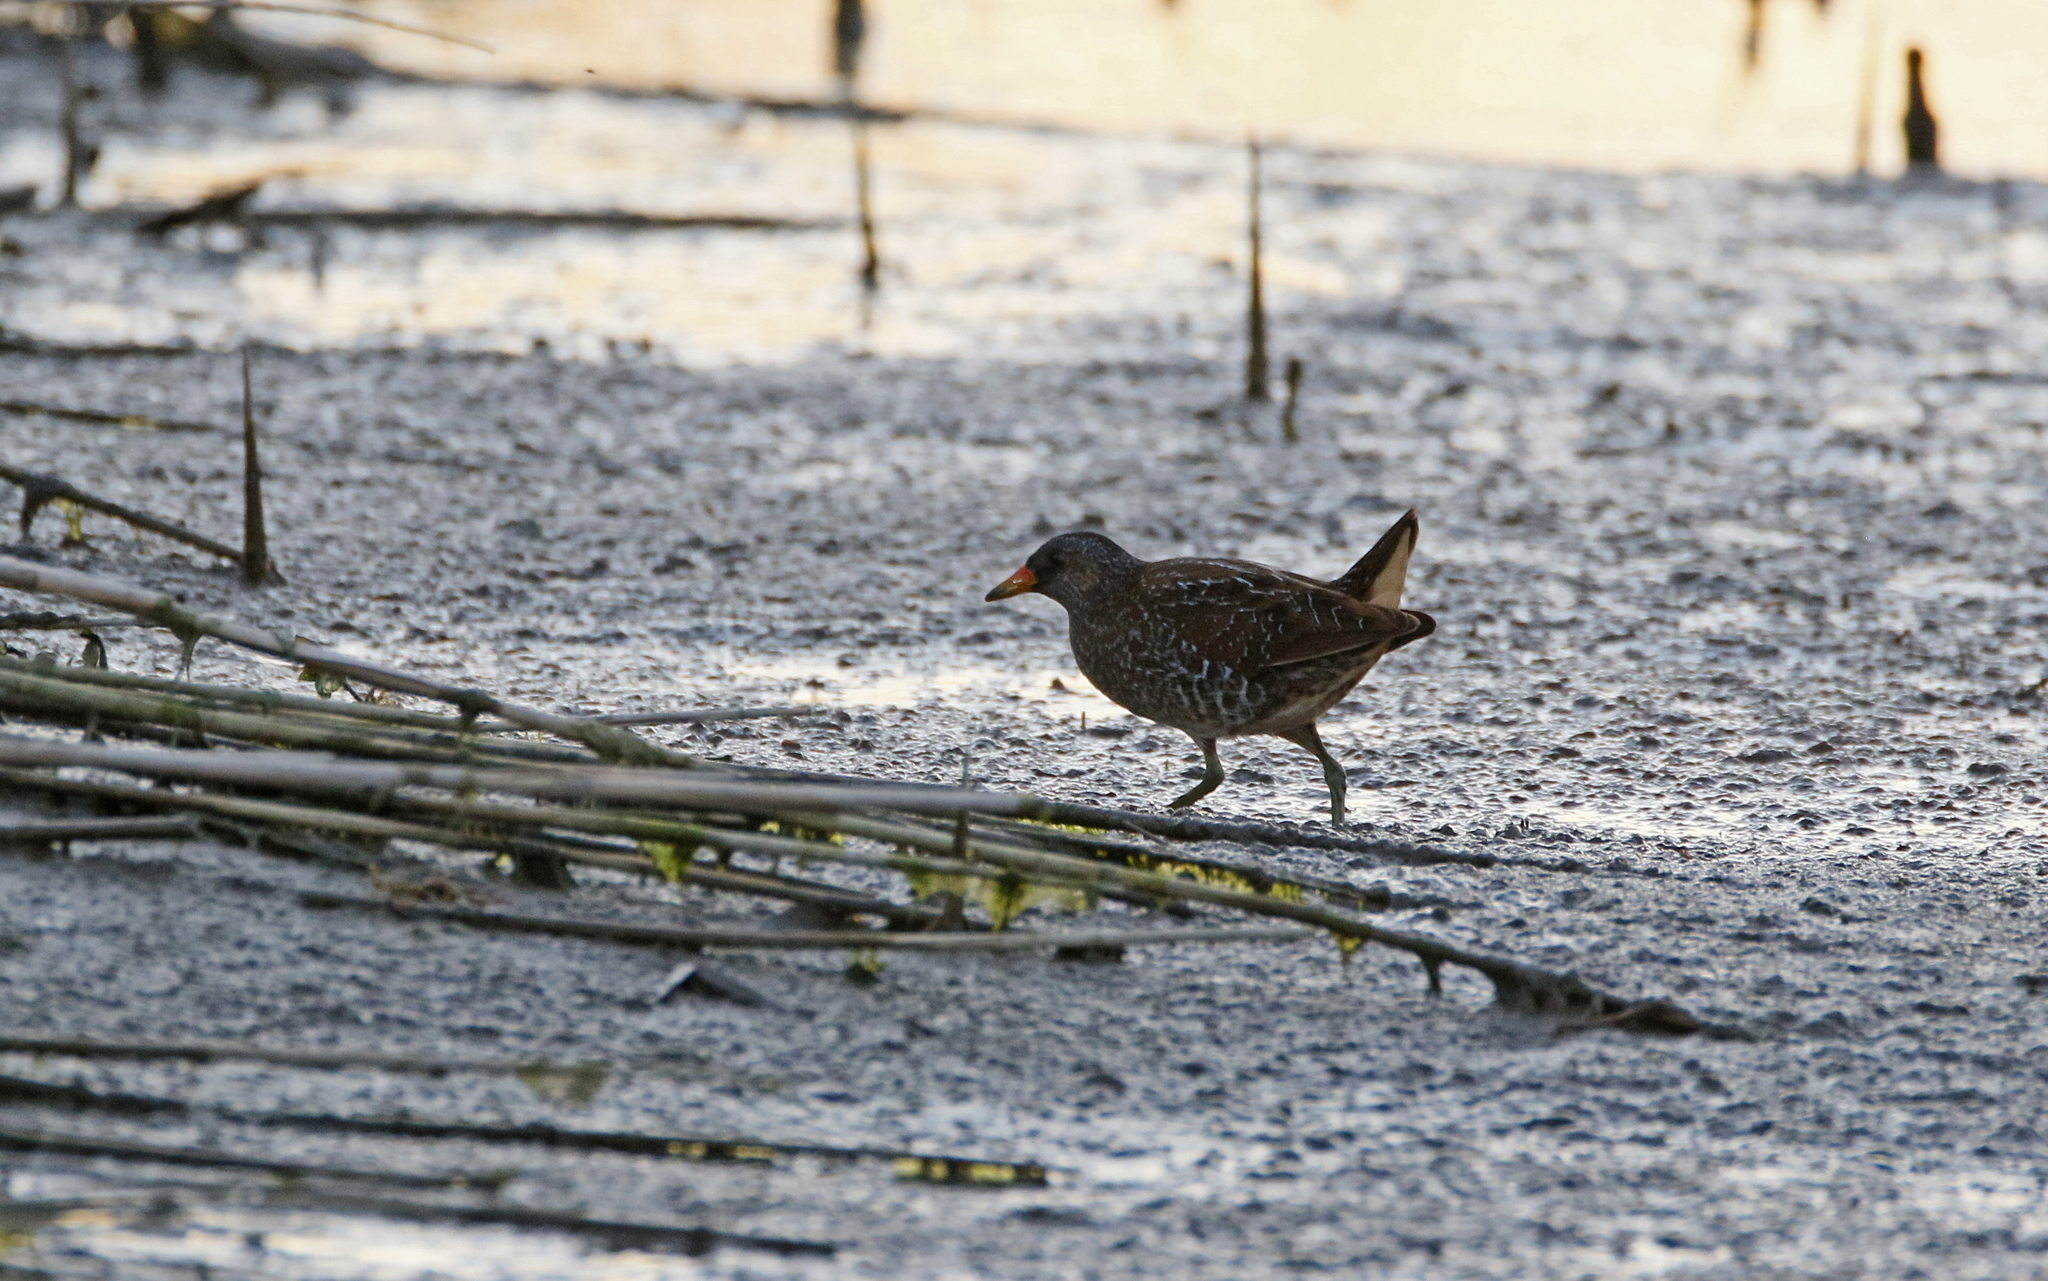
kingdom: Animalia
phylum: Chordata
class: Aves
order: Gruiformes
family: Rallidae
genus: Porzana
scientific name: Porzana porzana
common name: Spotted crake
